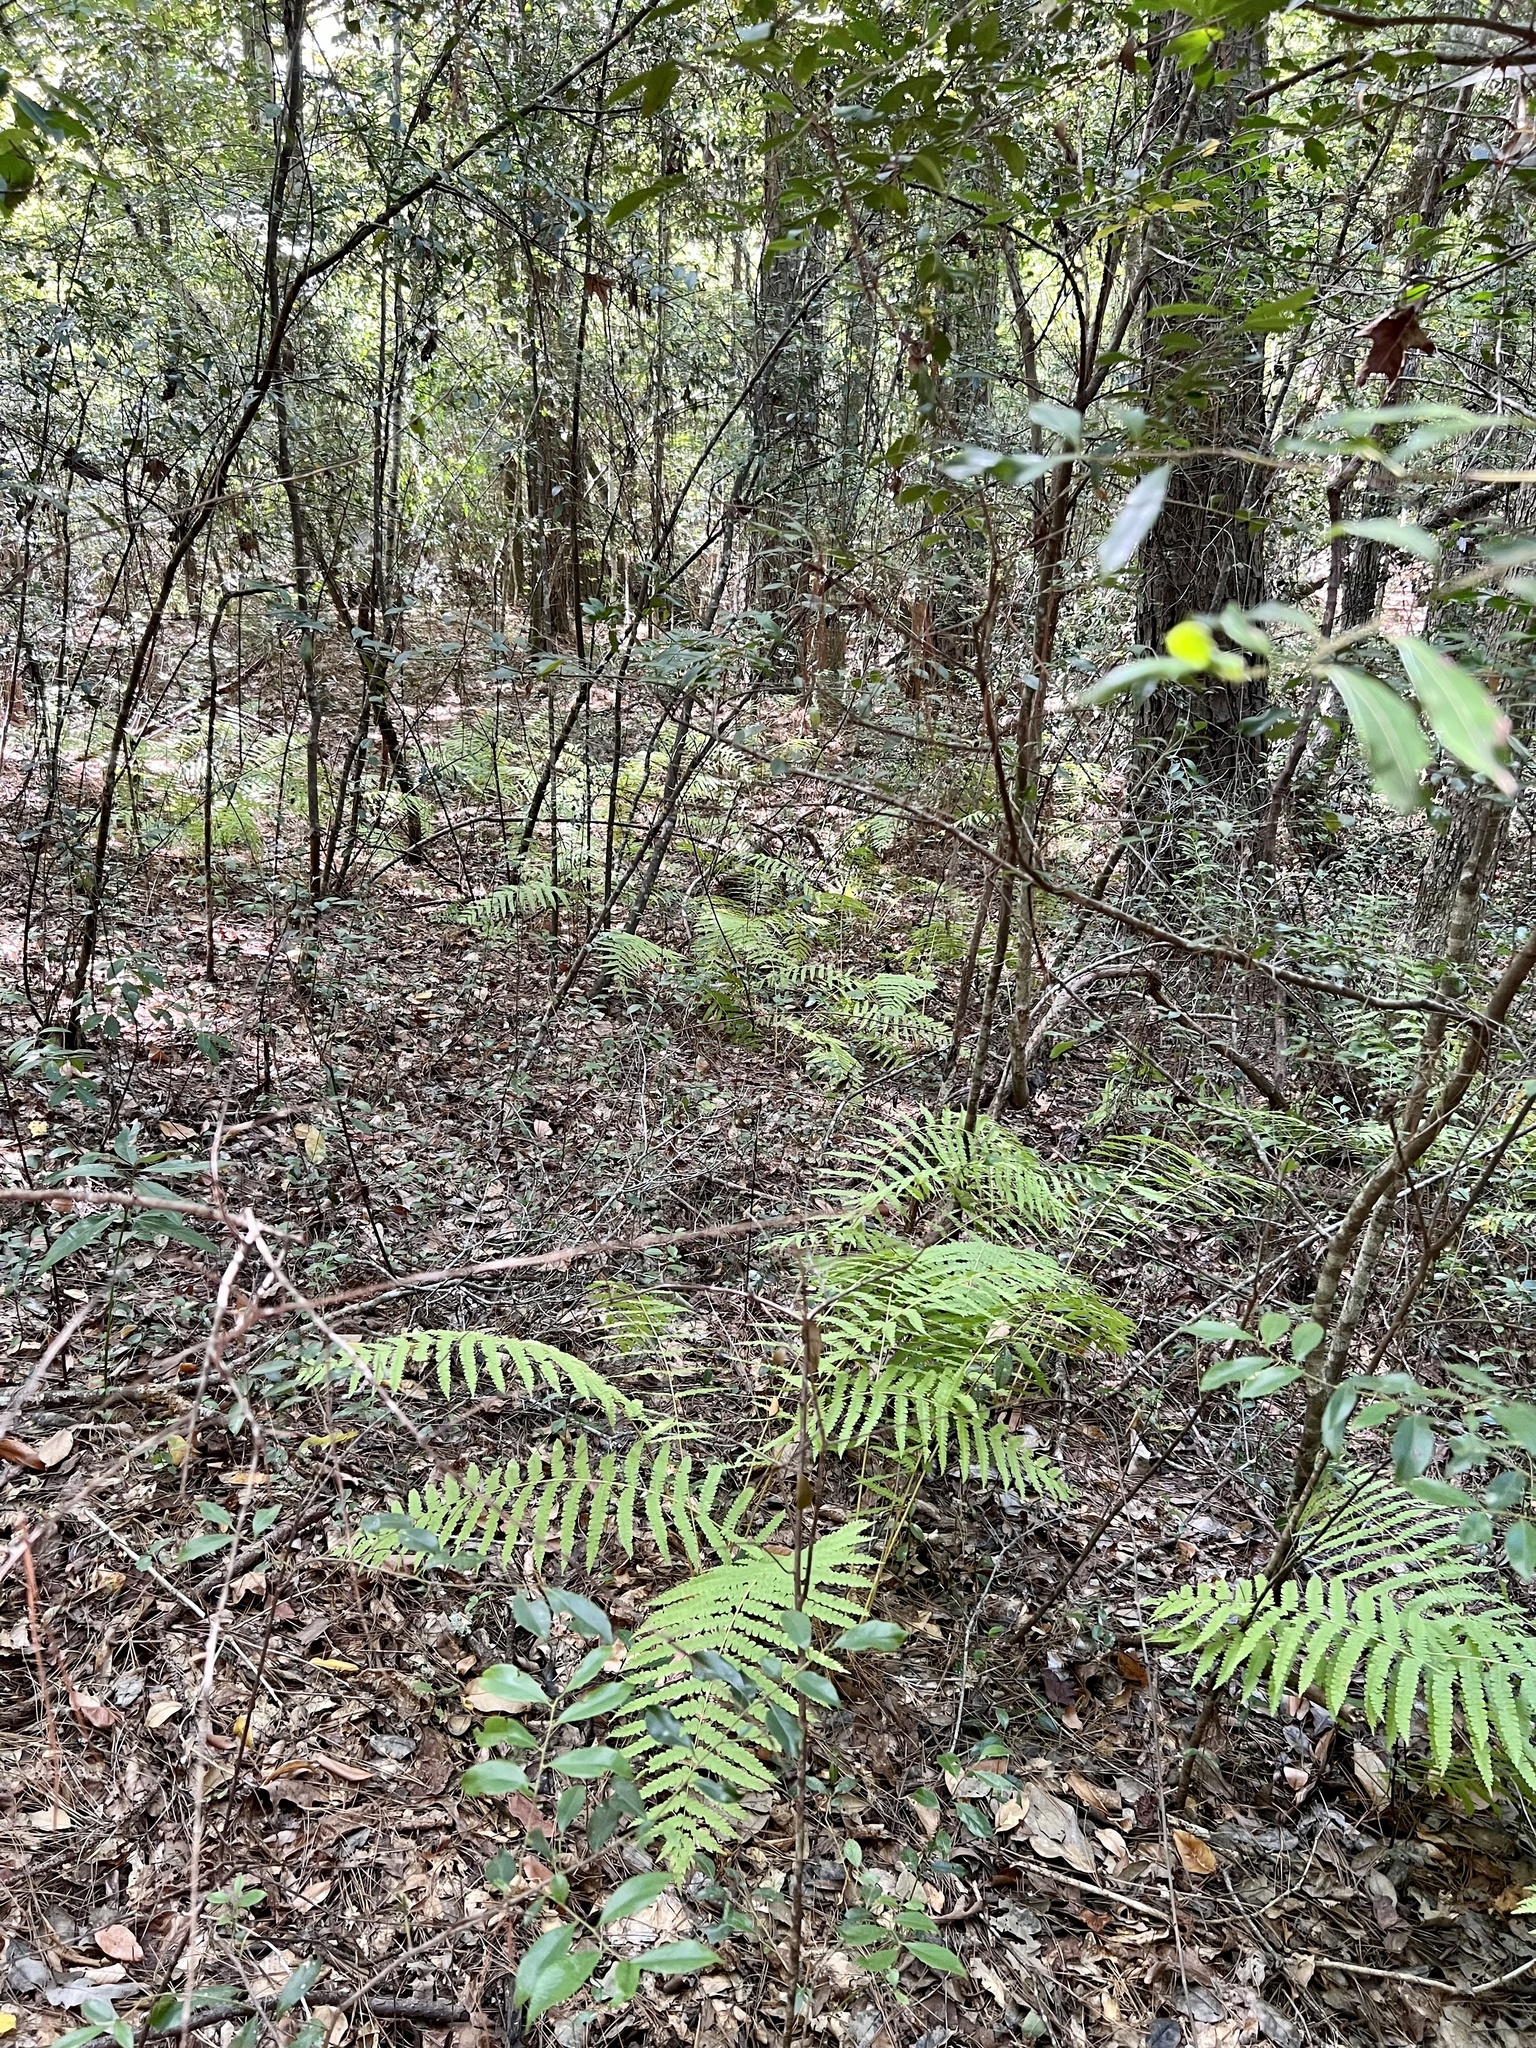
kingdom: Plantae
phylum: Tracheophyta
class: Polypodiopsida
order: Osmundales
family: Osmundaceae
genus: Osmundastrum
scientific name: Osmundastrum cinnamomeum
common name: Cinnamon fern
